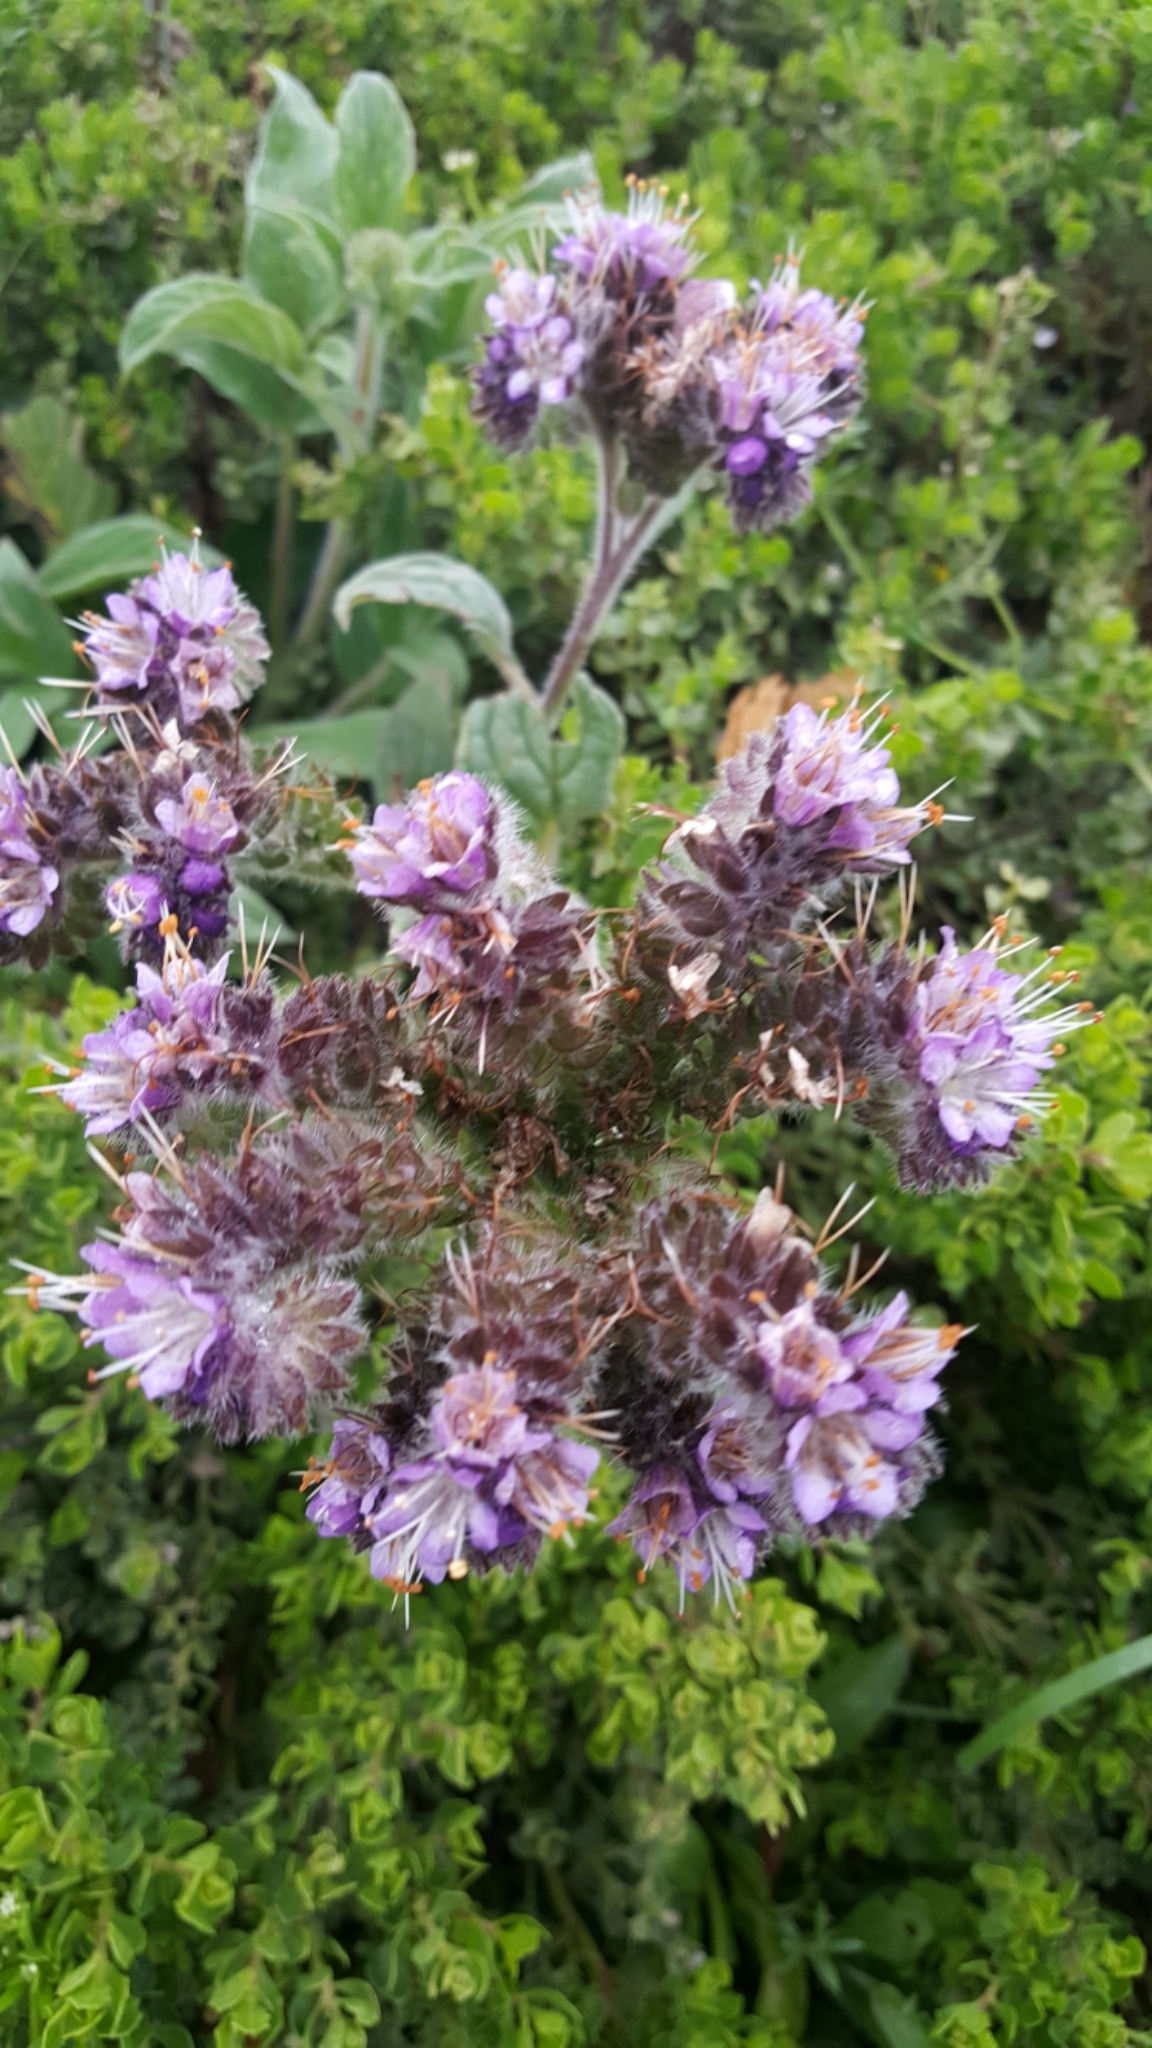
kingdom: Plantae
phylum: Tracheophyta
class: Magnoliopsida
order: Boraginales
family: Hydrophyllaceae
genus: Phacelia
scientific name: Phacelia californica
